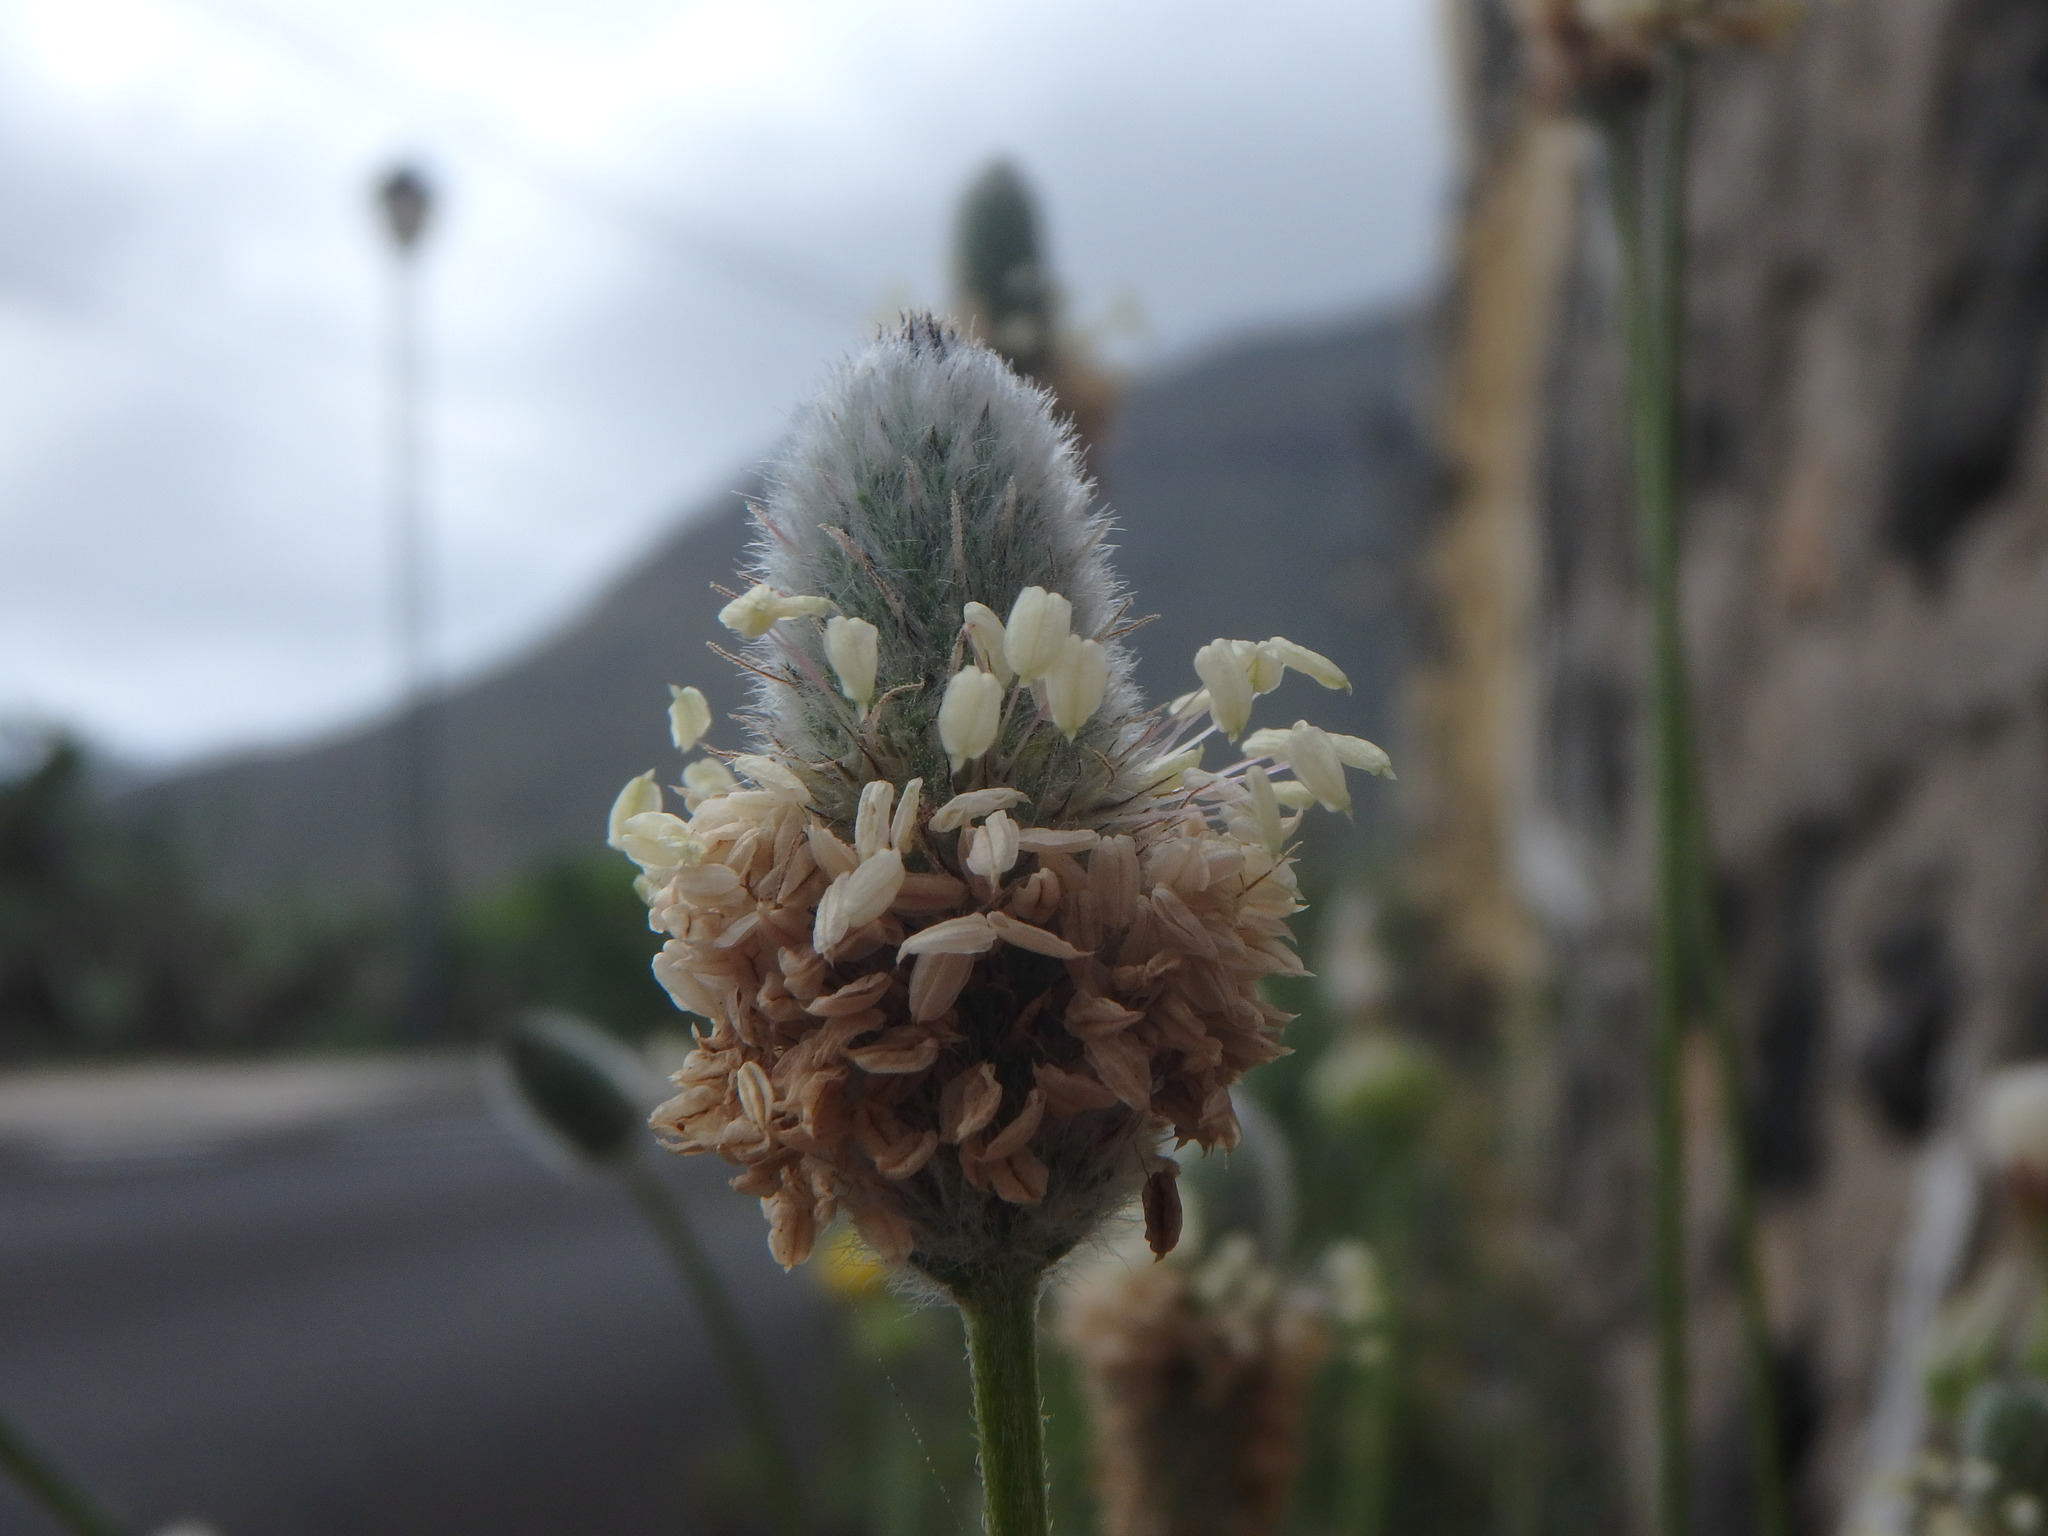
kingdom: Plantae
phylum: Tracheophyta
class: Magnoliopsida
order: Lamiales
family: Plantaginaceae
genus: Plantago
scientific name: Plantago lagopus
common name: Hare-foot plantain
